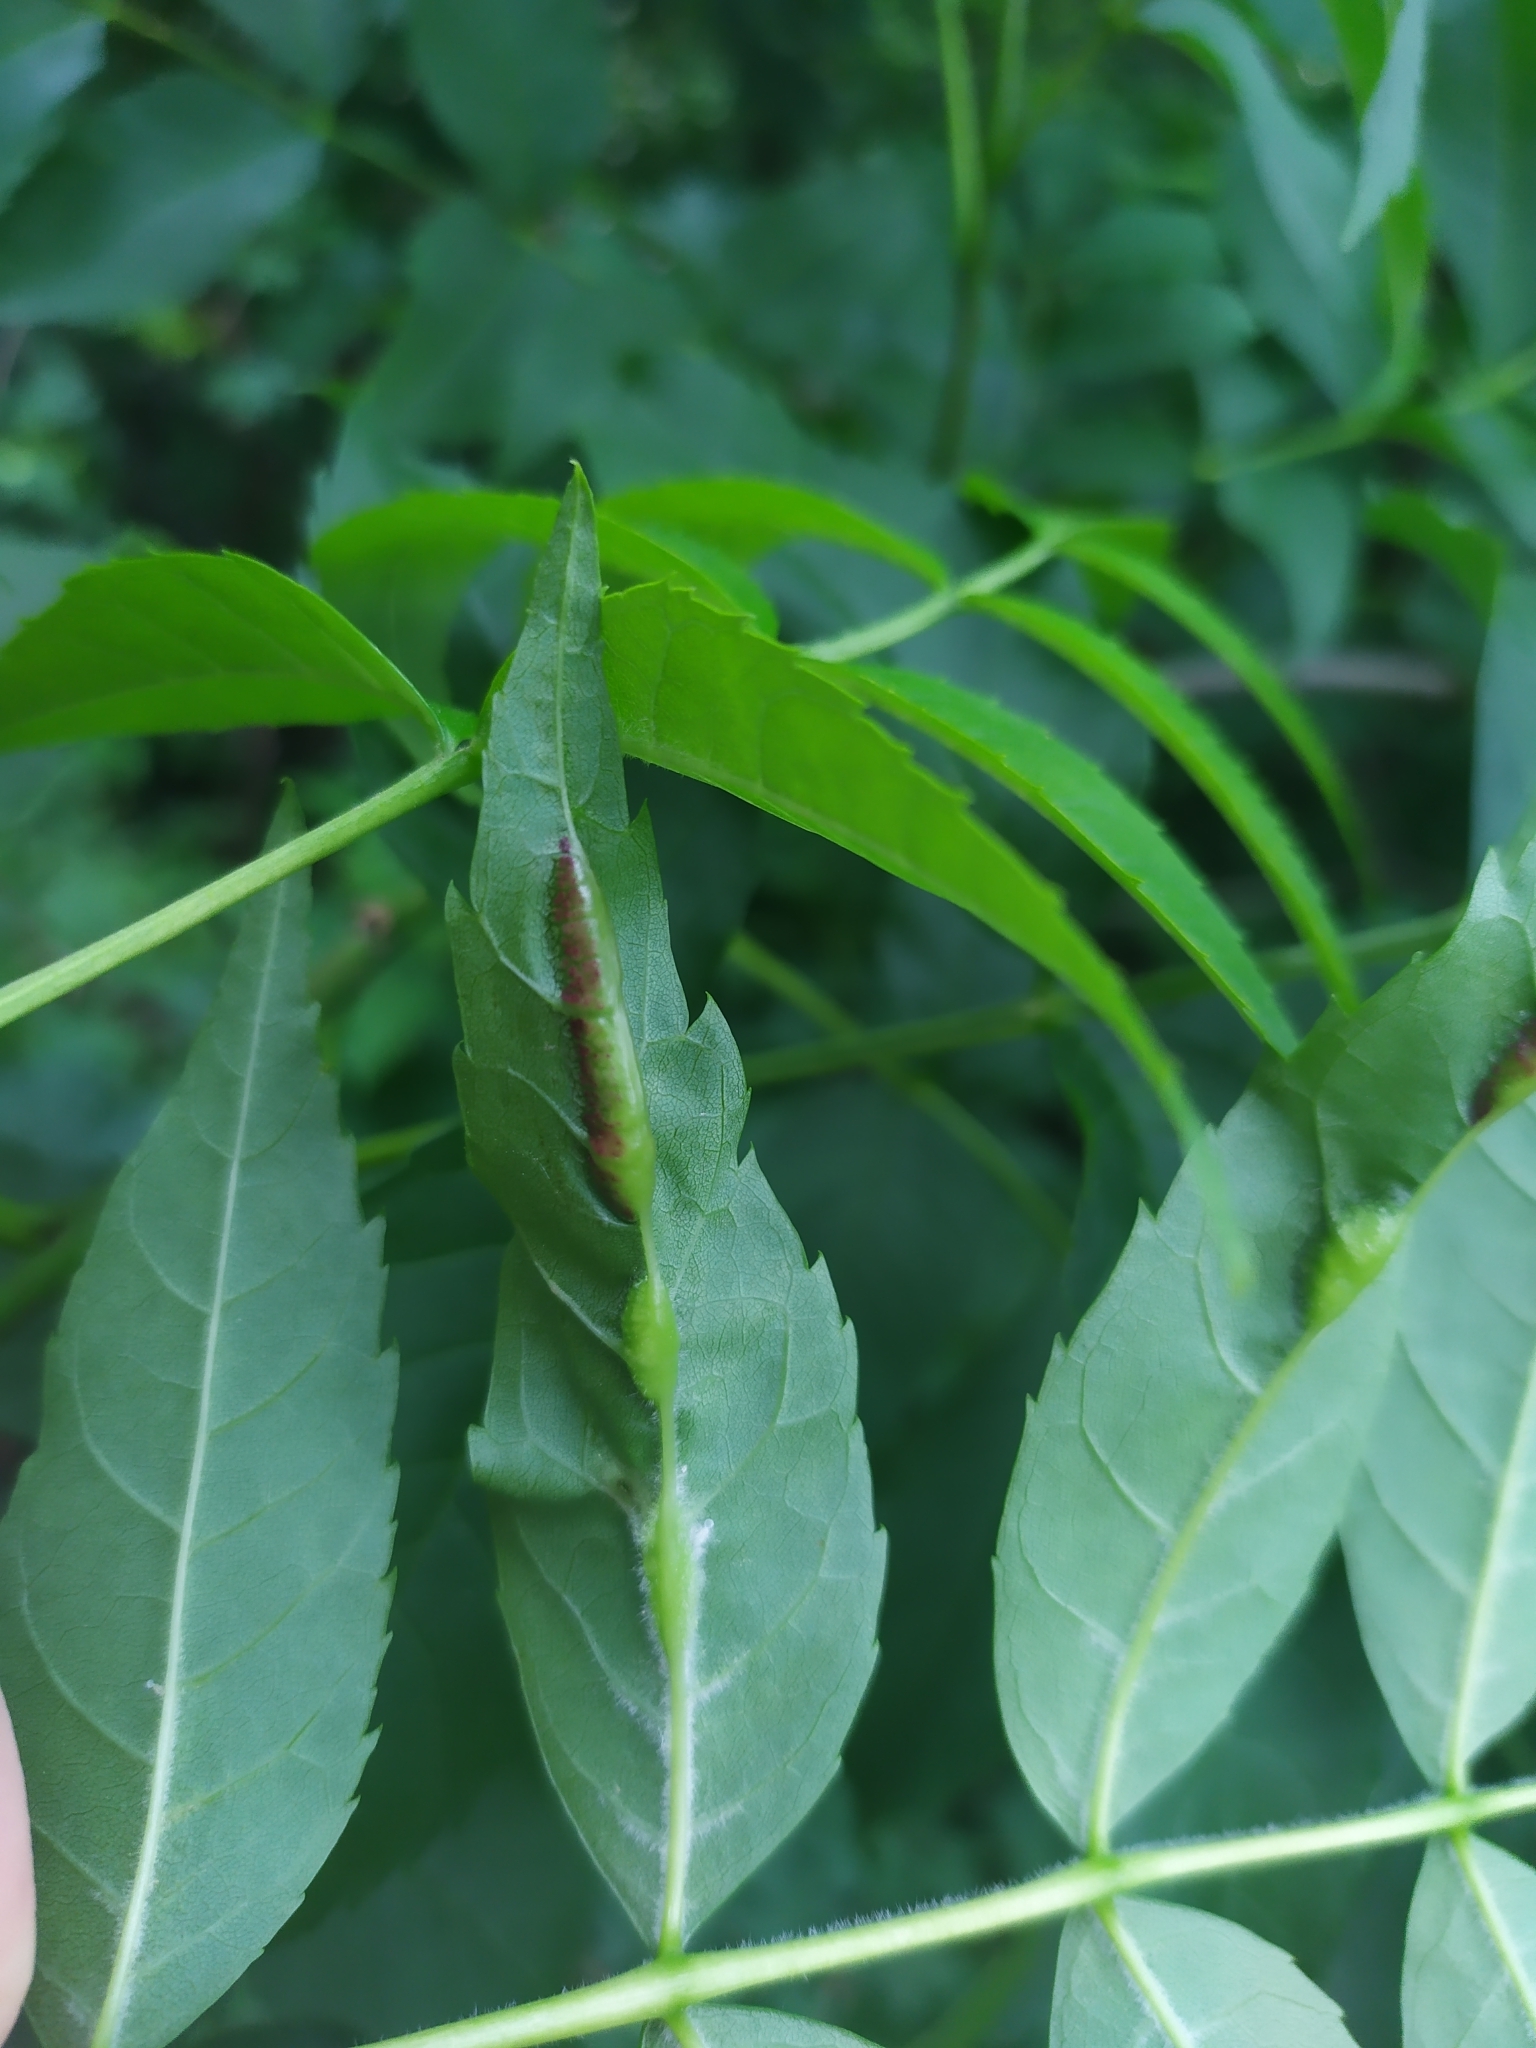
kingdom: Animalia
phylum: Arthropoda
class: Insecta
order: Diptera
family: Cecidomyiidae
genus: Dasineura
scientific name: Dasineura fraxini
